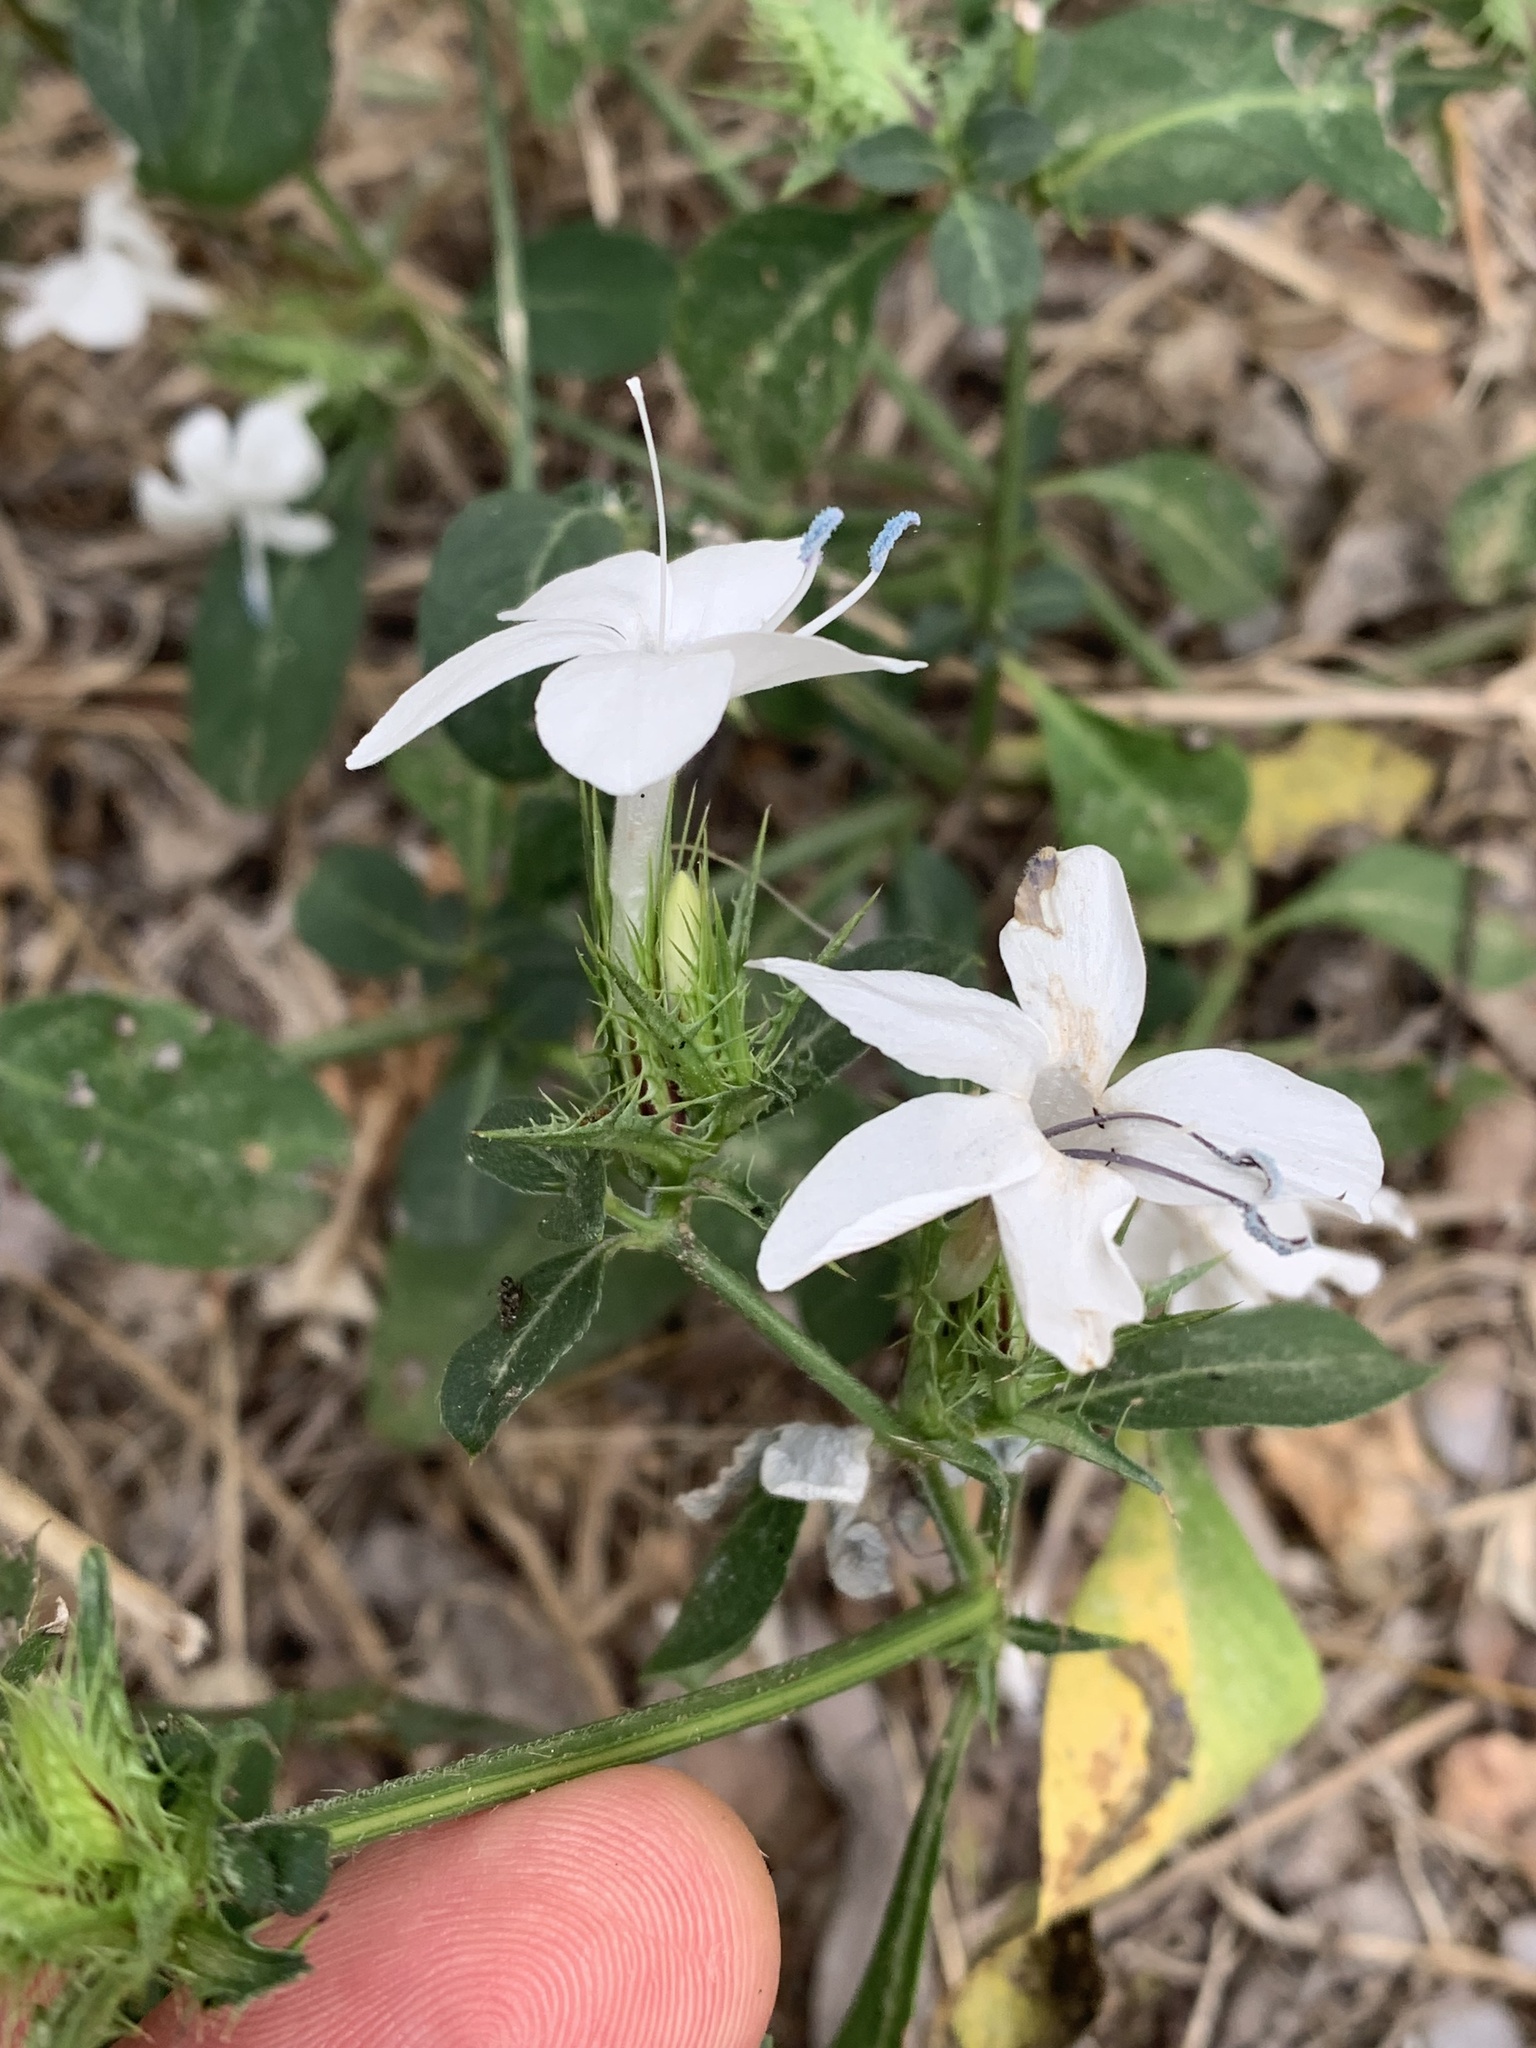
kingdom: Plantae
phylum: Tracheophyta
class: Magnoliopsida
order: Lamiales
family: Acanthaceae
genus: Barleria
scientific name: Barleria elegans
